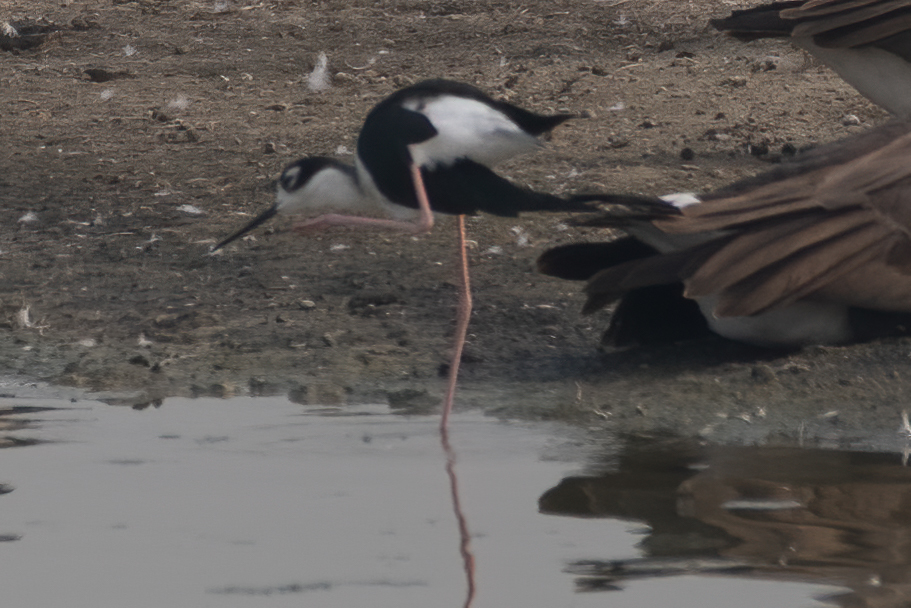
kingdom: Animalia
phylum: Chordata
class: Aves
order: Charadriiformes
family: Recurvirostridae
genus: Himantopus
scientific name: Himantopus mexicanus
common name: Black-necked stilt
